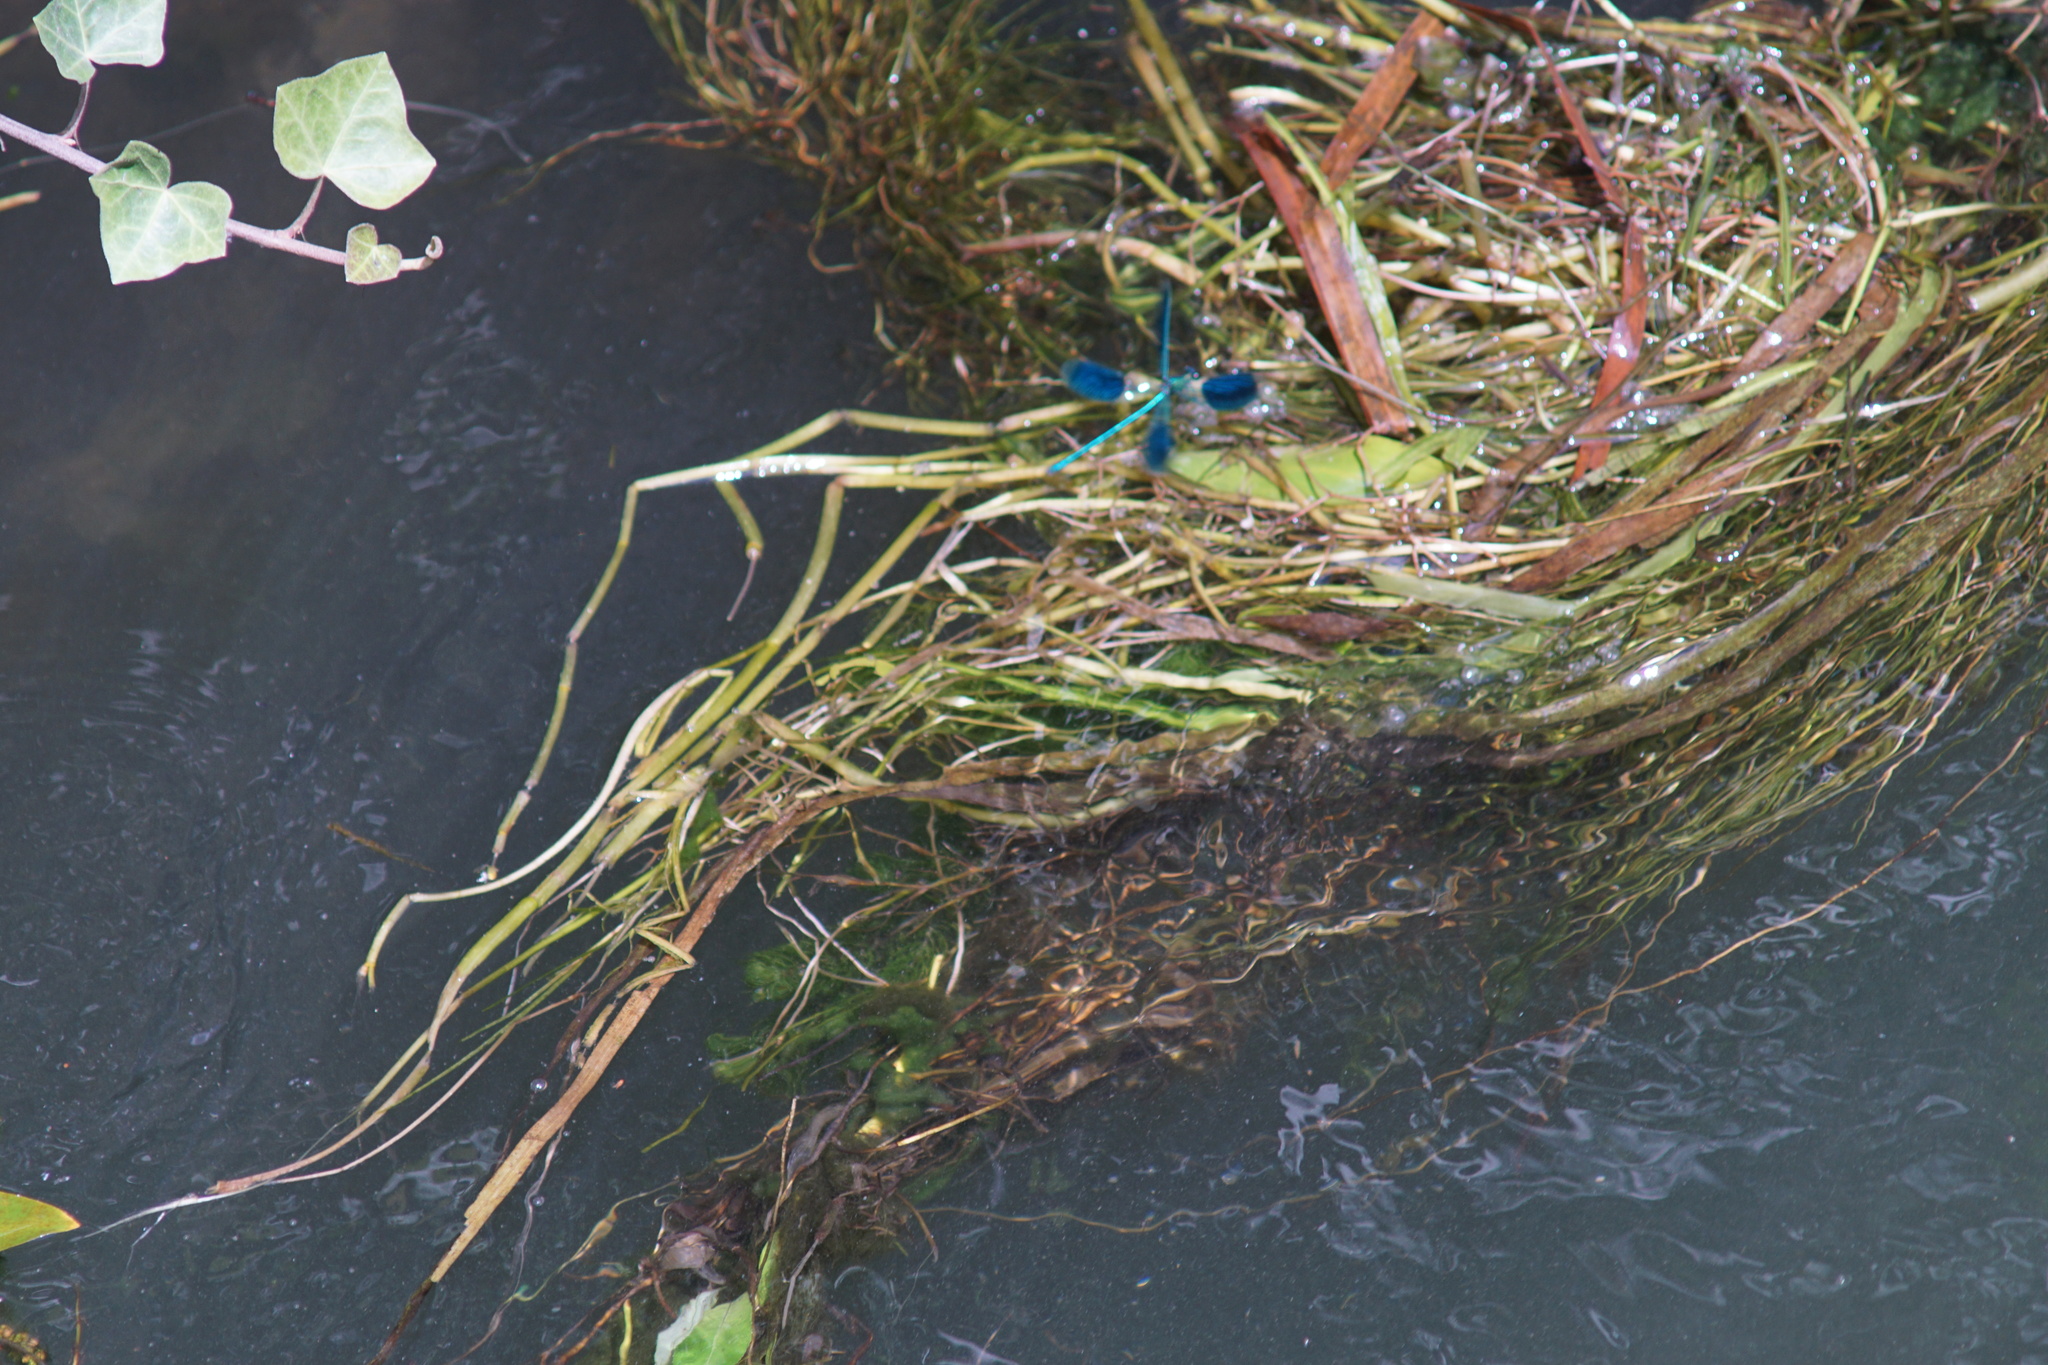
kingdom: Animalia
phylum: Arthropoda
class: Insecta
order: Odonata
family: Calopterygidae
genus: Calopteryx
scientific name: Calopteryx splendens
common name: Banded demoiselle
